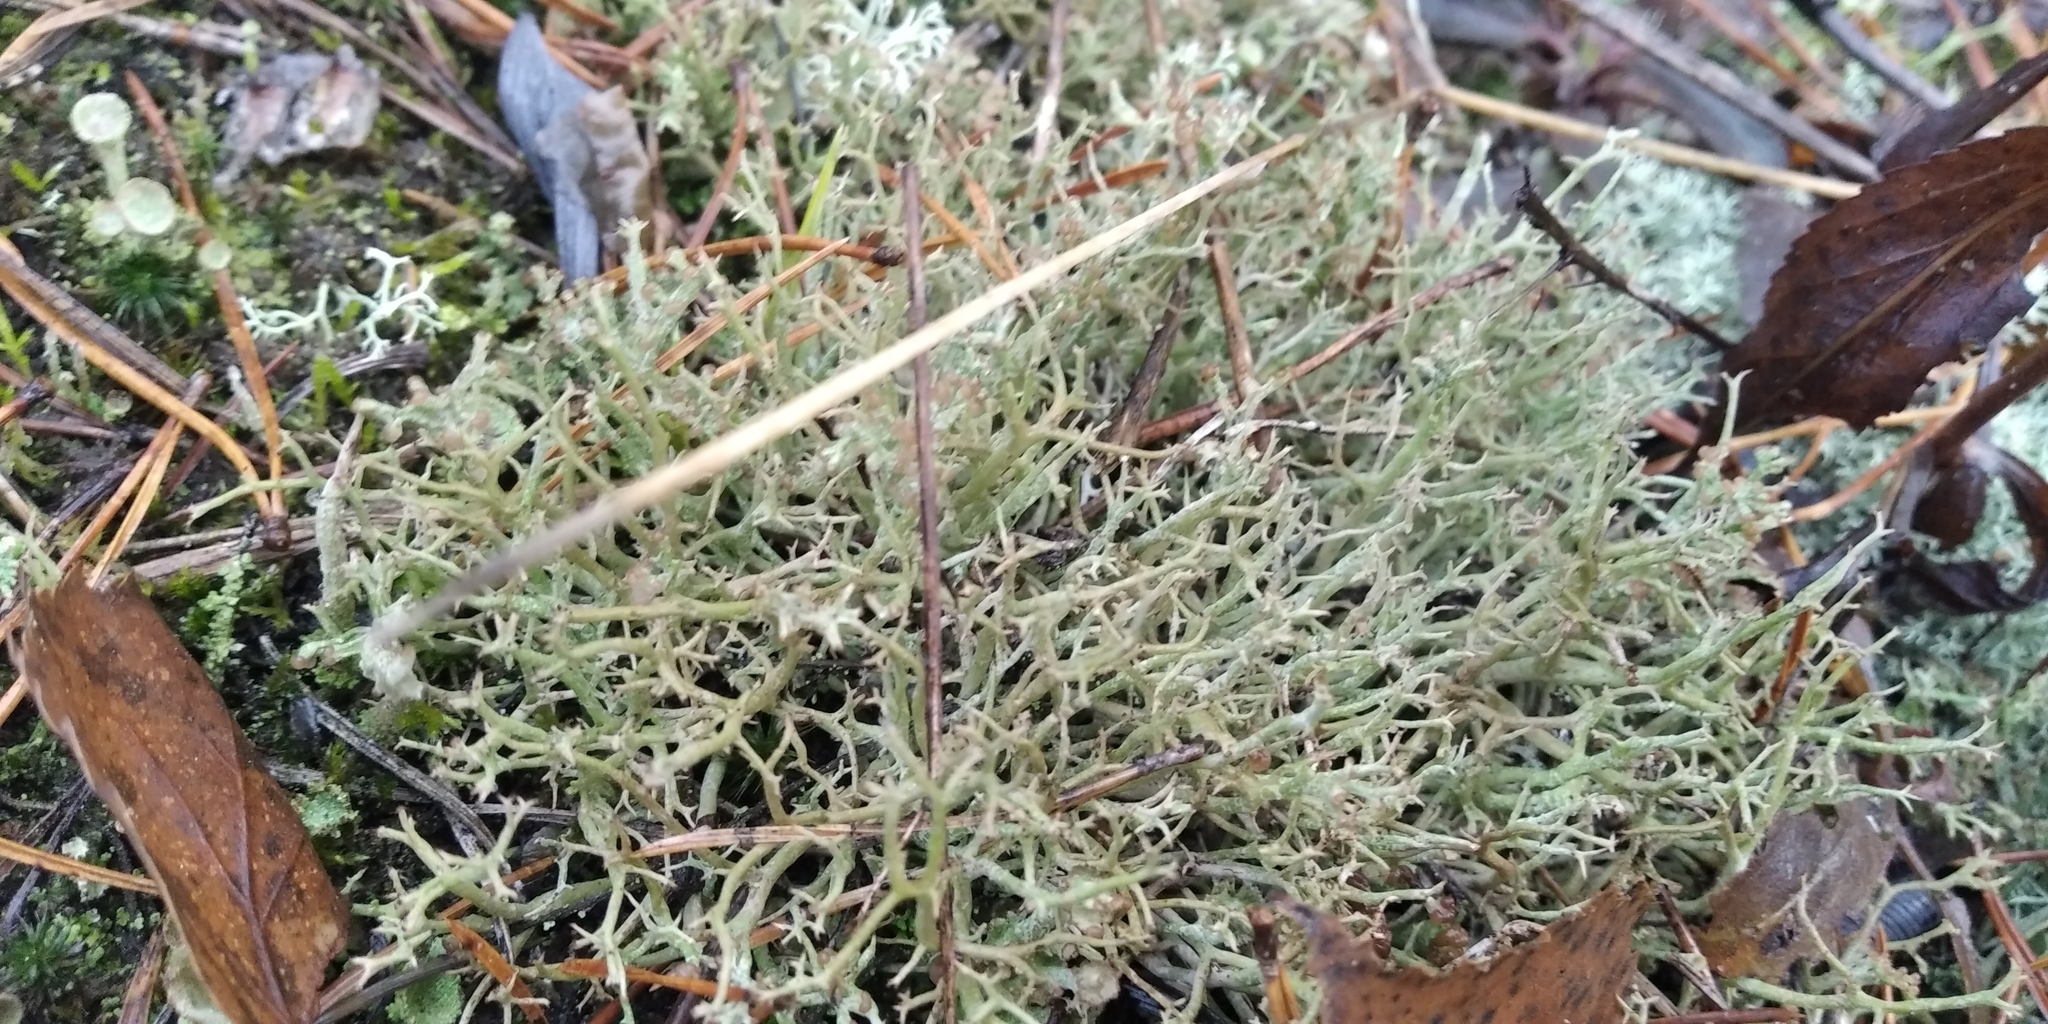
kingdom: Fungi
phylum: Ascomycota
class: Lecanoromycetes
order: Lecanorales
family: Cladoniaceae
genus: Cladonia
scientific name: Cladonia furcata
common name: Many-forked cladonia
